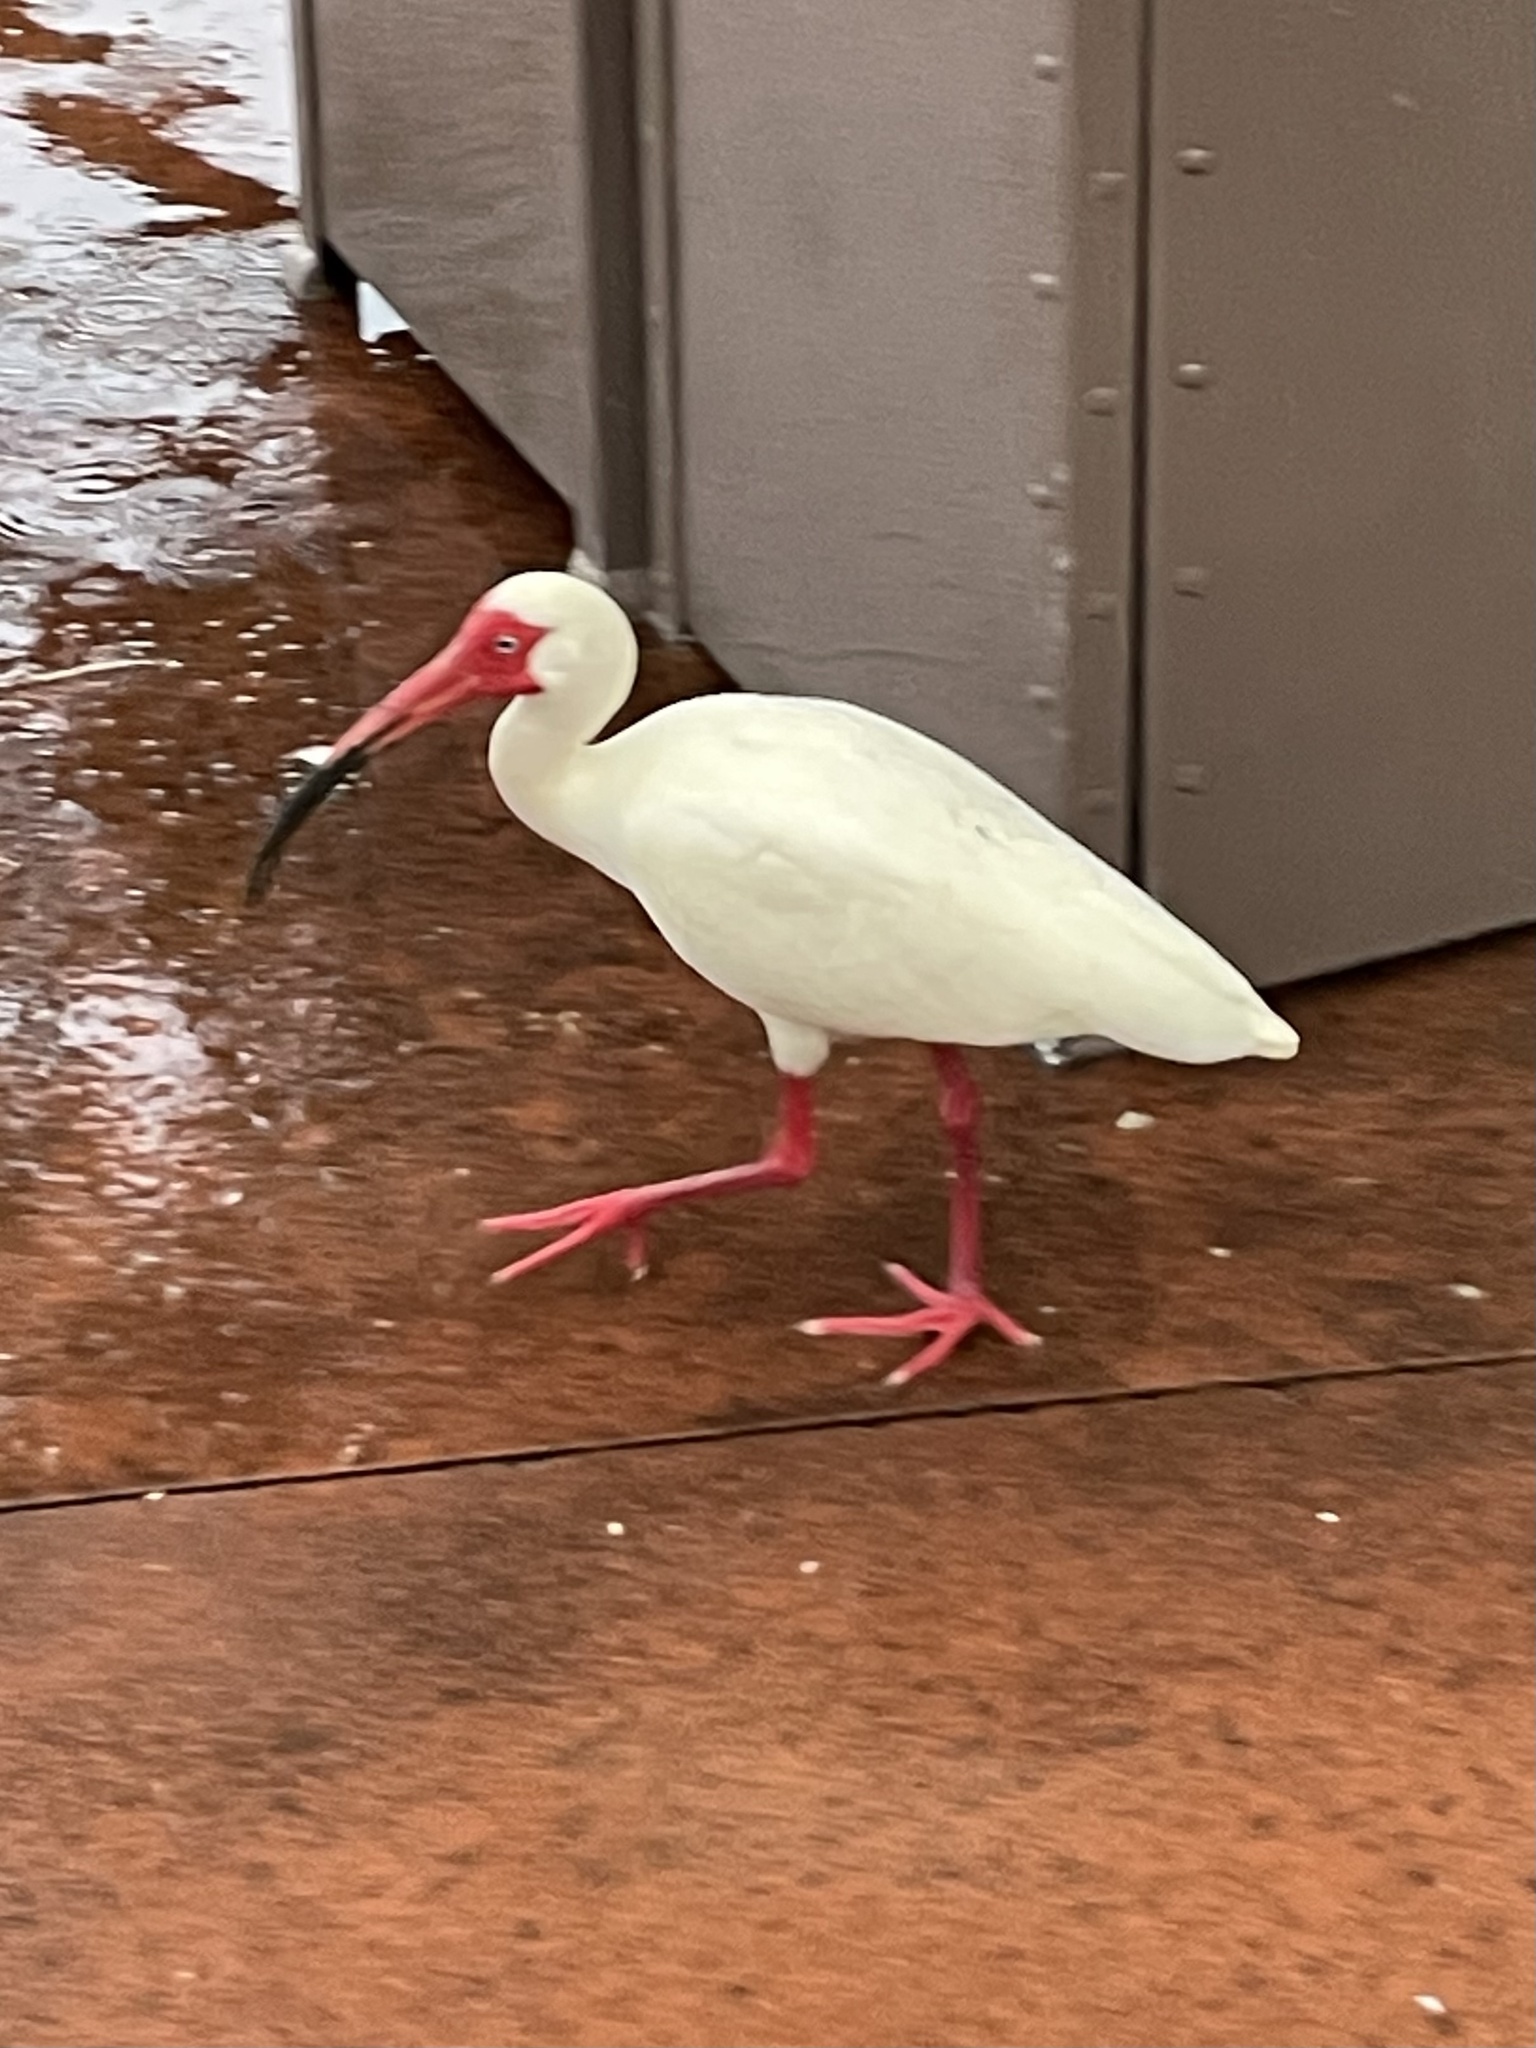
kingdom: Animalia
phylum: Chordata
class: Aves
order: Pelecaniformes
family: Threskiornithidae
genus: Eudocimus
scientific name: Eudocimus albus
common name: White ibis
